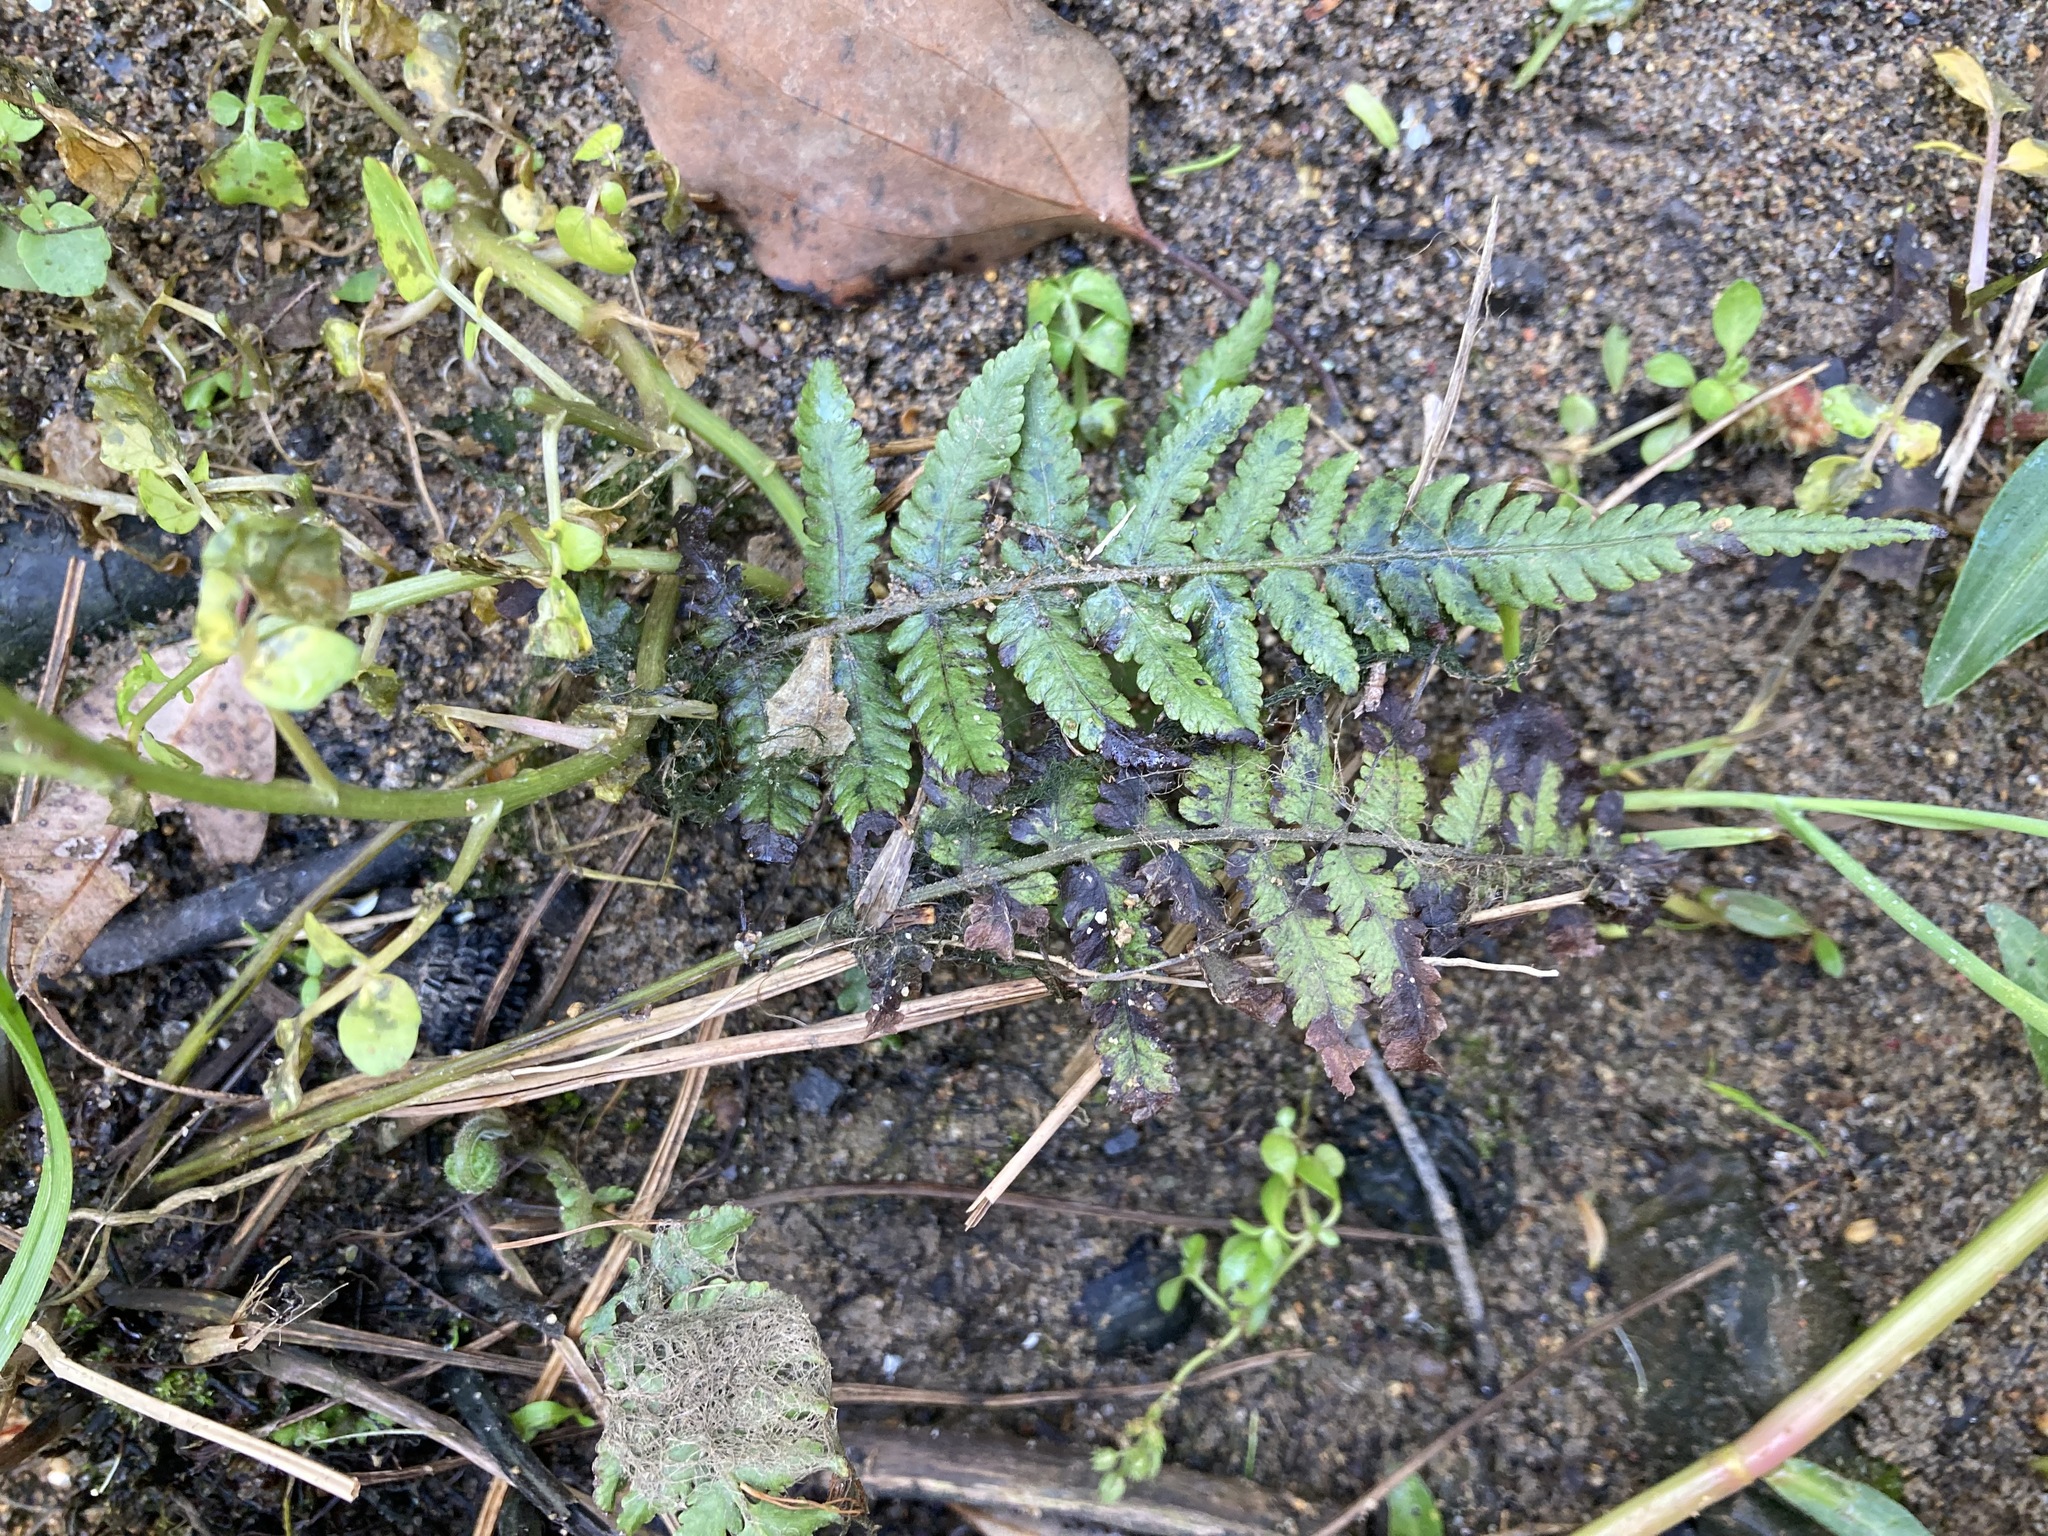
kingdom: Plantae
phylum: Tracheophyta
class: Polypodiopsida
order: Polypodiales
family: Thelypteridaceae
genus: Christella
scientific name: Christella dentata
